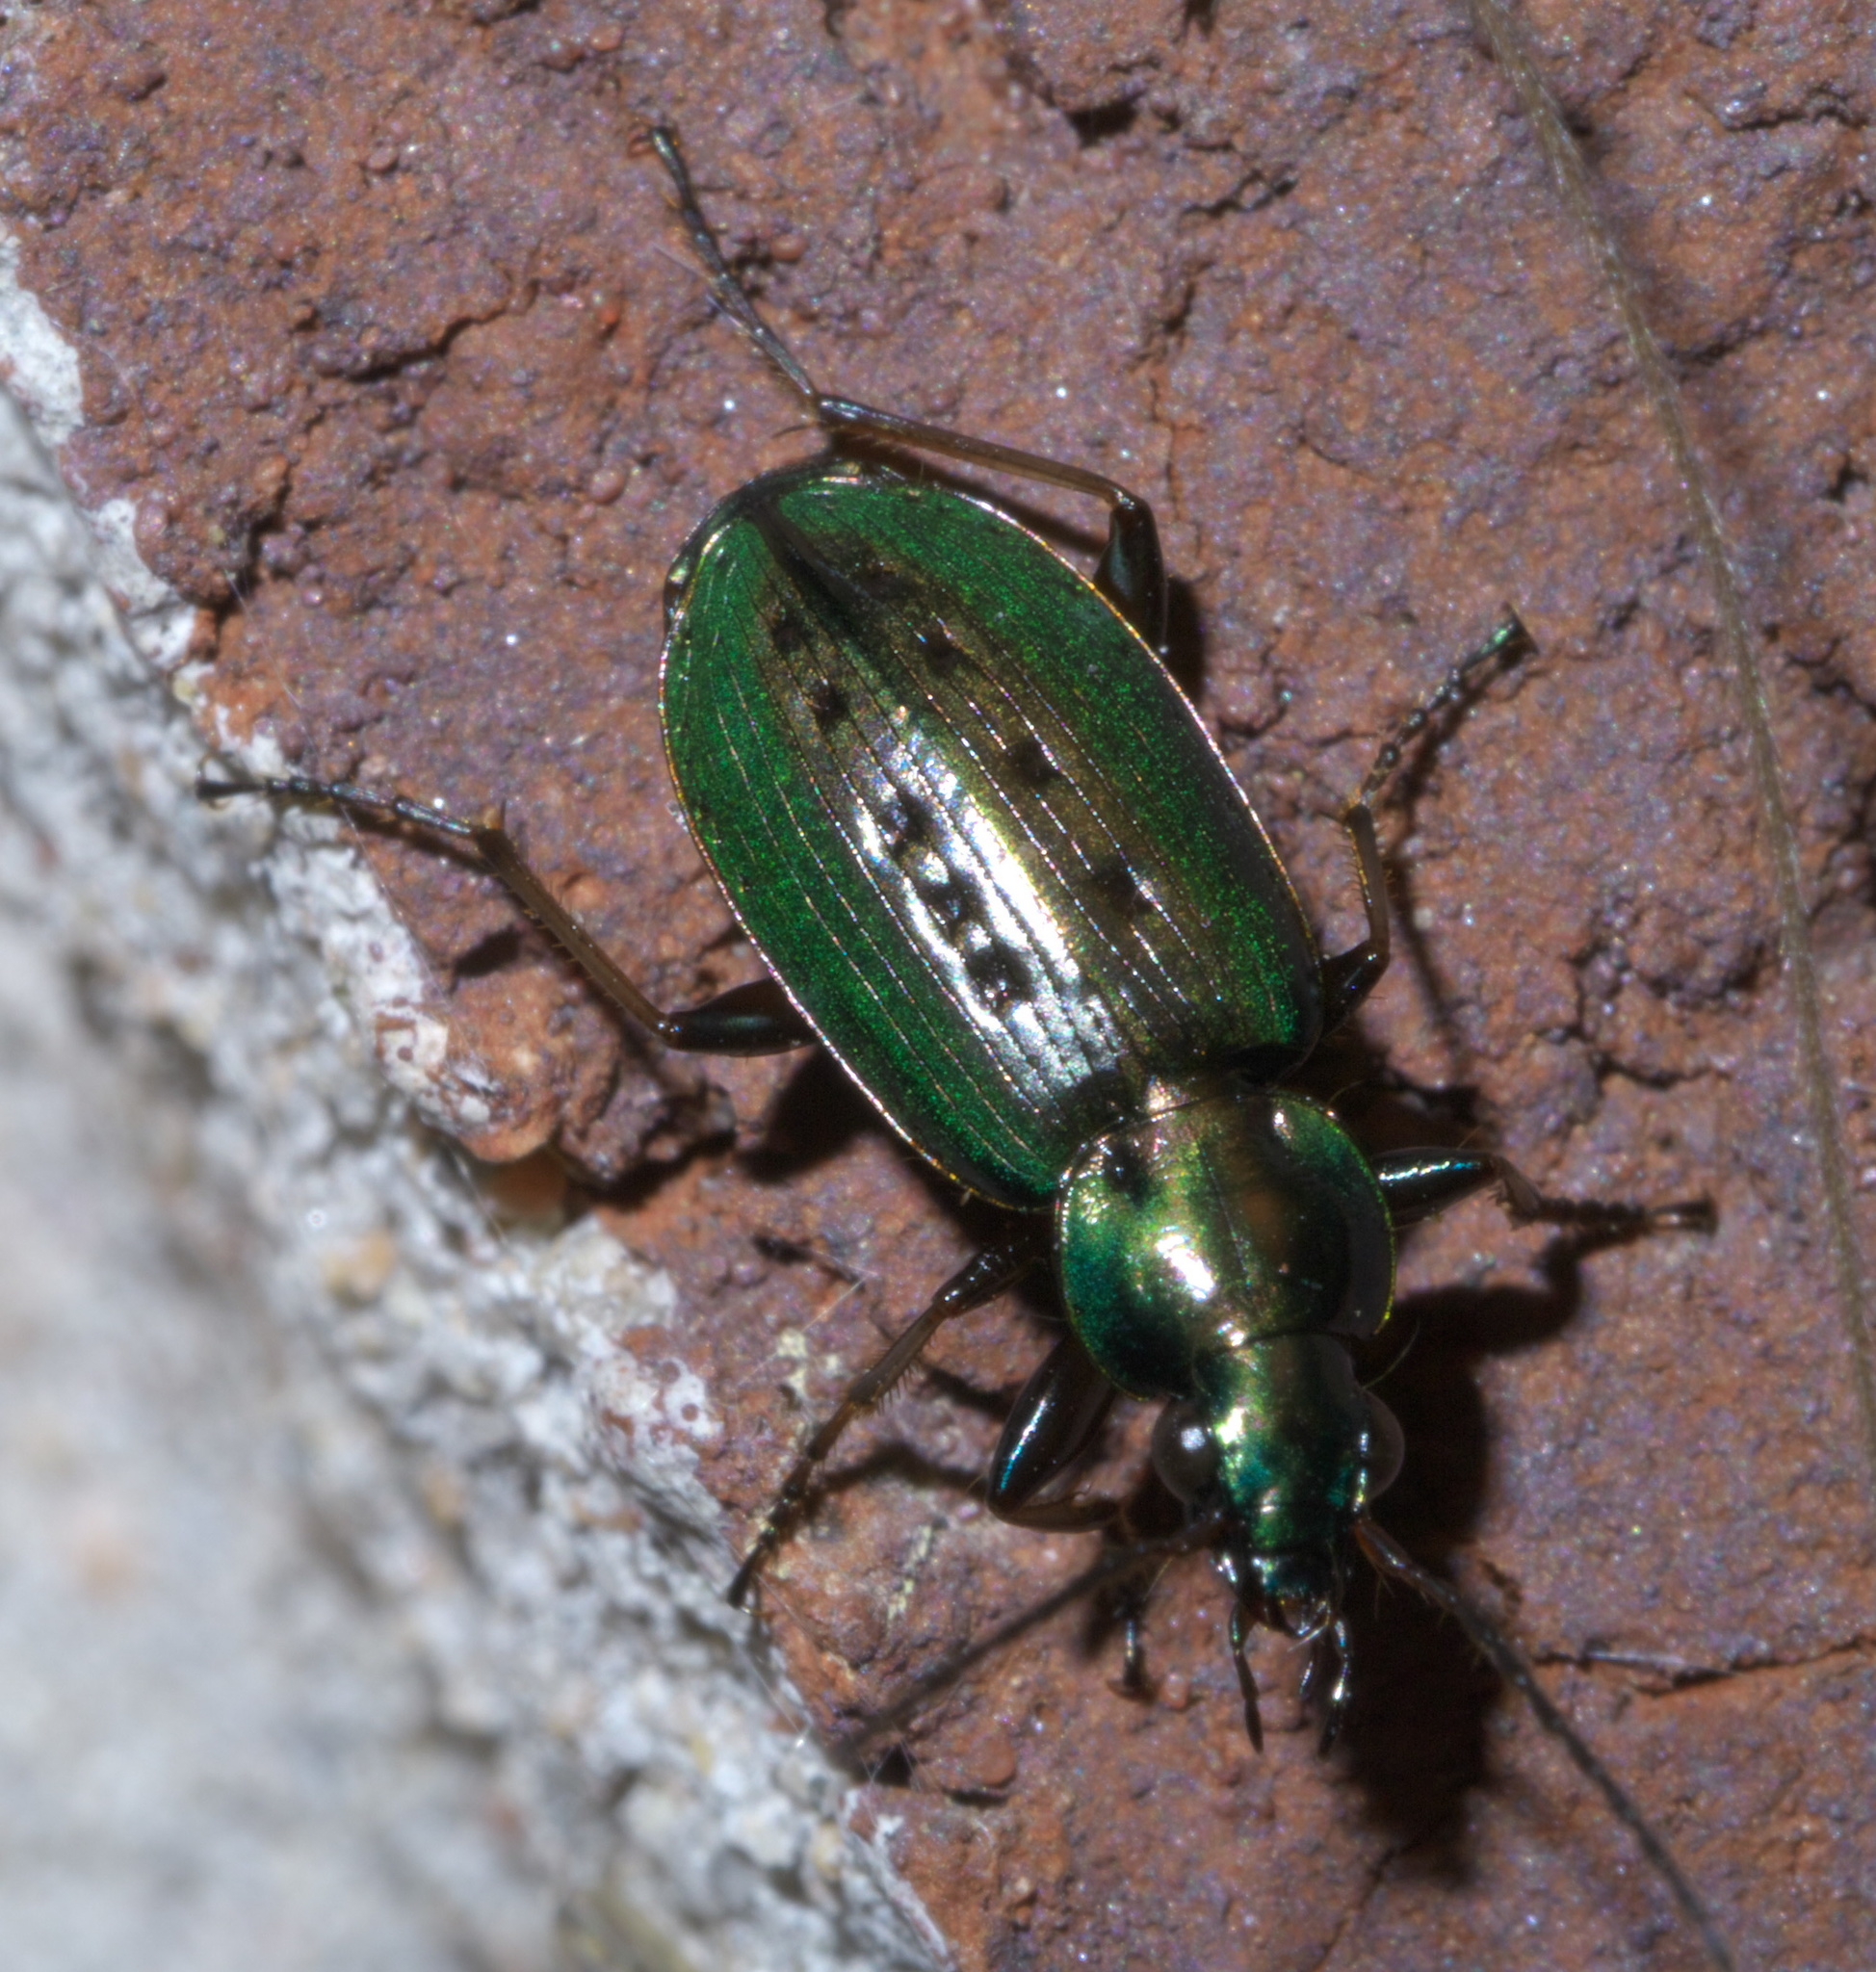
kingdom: Animalia
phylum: Arthropoda
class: Insecta
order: Coleoptera
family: Carabidae
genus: Agonum
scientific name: Agonum octopunctatum
